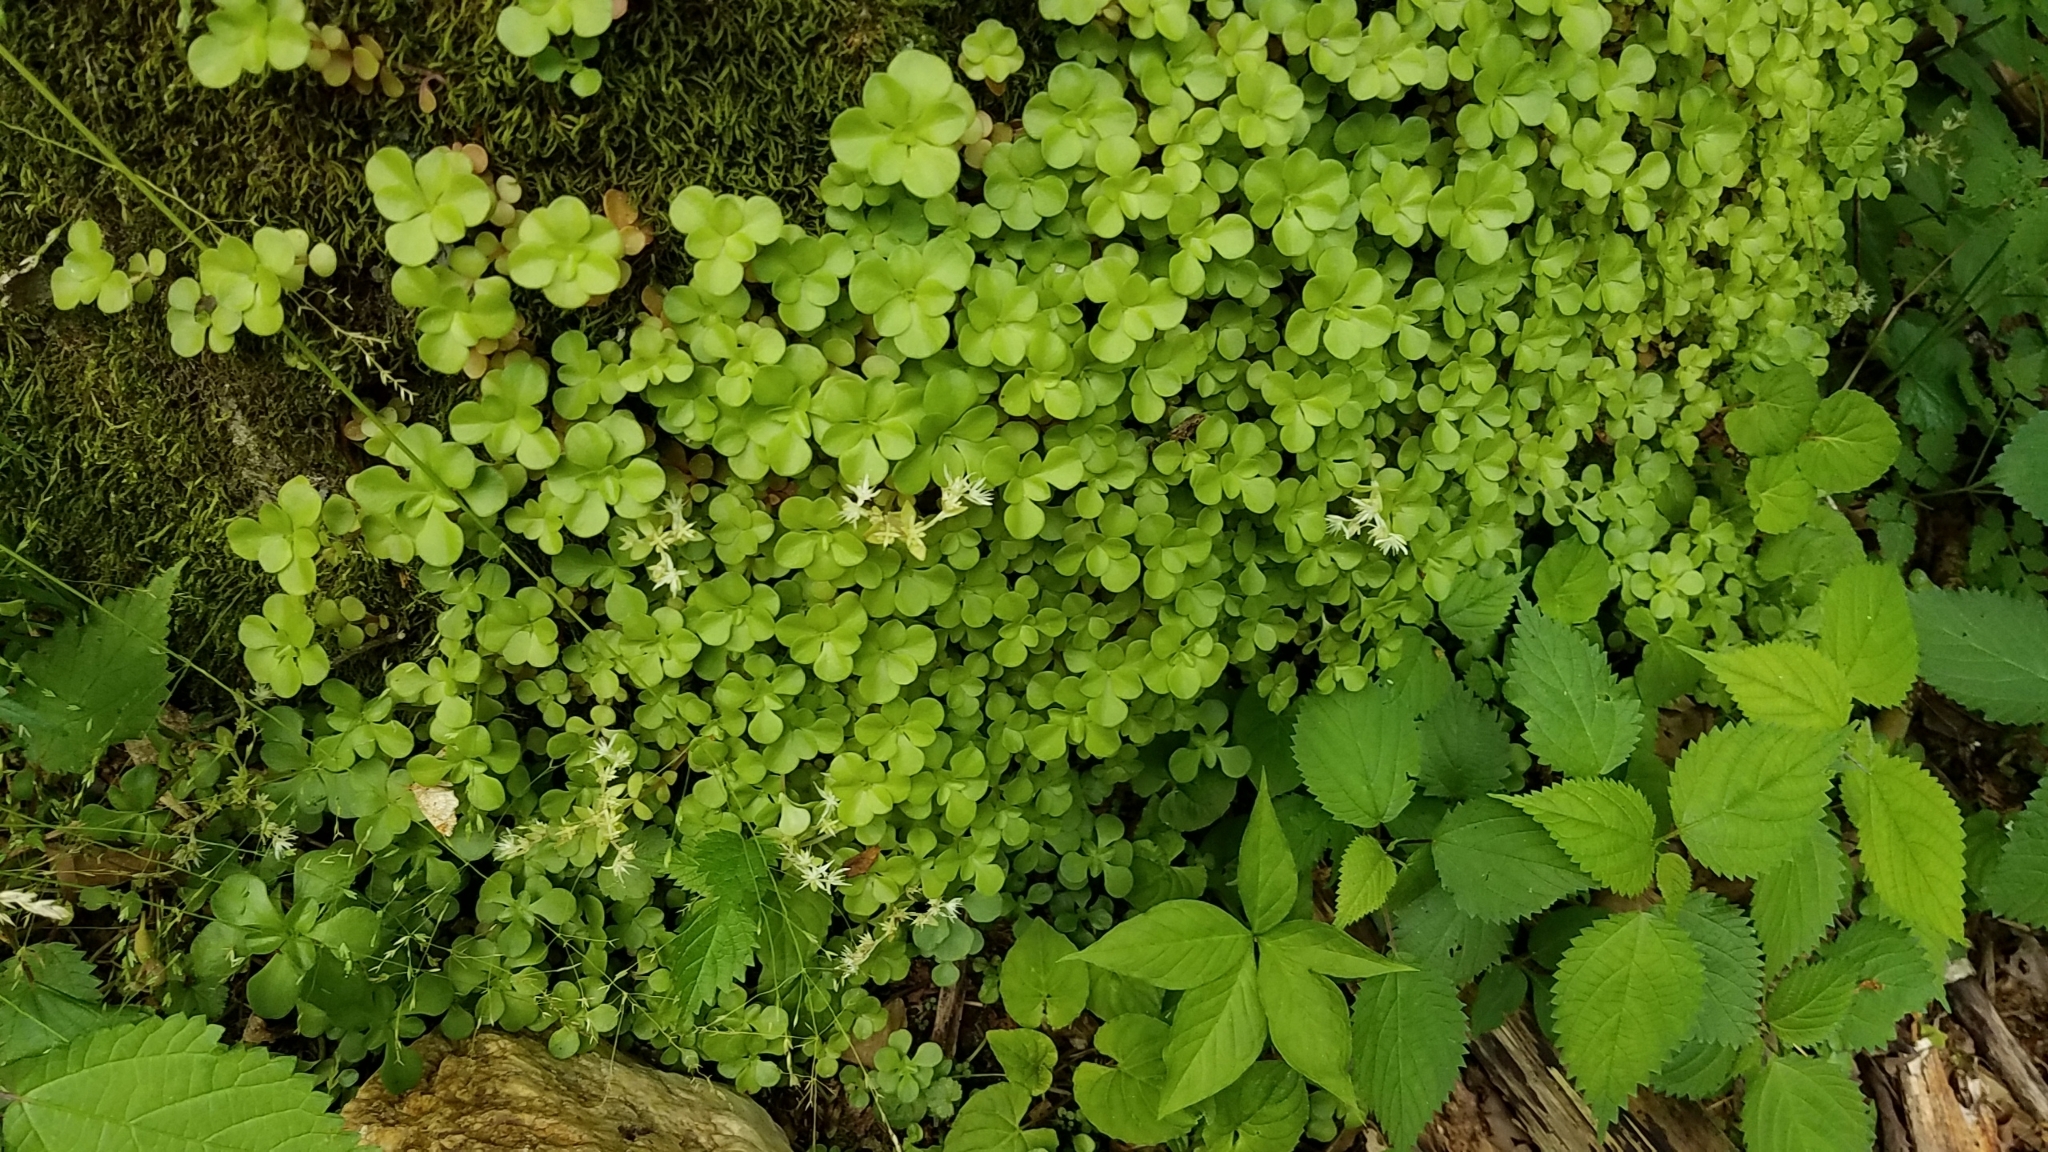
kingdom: Plantae
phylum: Tracheophyta
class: Magnoliopsida
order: Saxifragales
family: Crassulaceae
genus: Sedum
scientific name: Sedum ternatum
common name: Wild stonecrop
